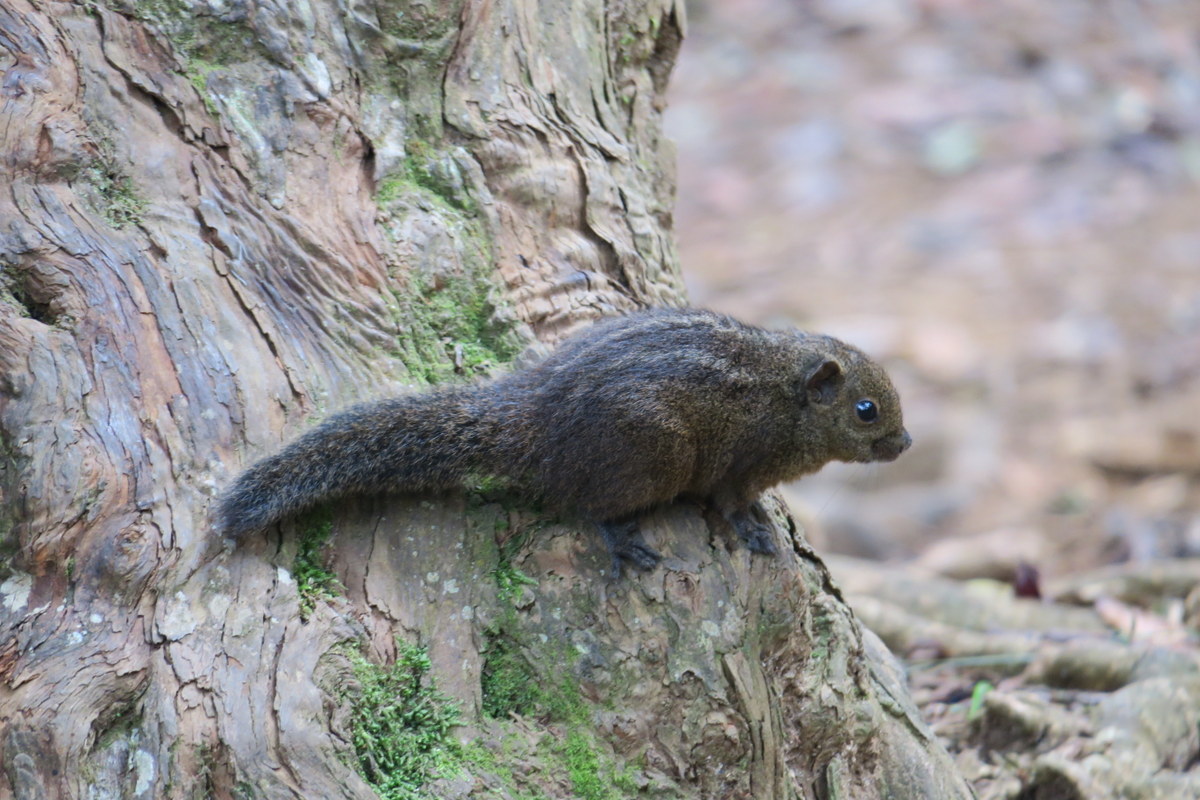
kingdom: Animalia
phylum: Chordata
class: Mammalia
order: Rodentia
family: Sciuridae
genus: Funambulus
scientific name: Funambulus sublineatus
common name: Dusky palm squirrel
